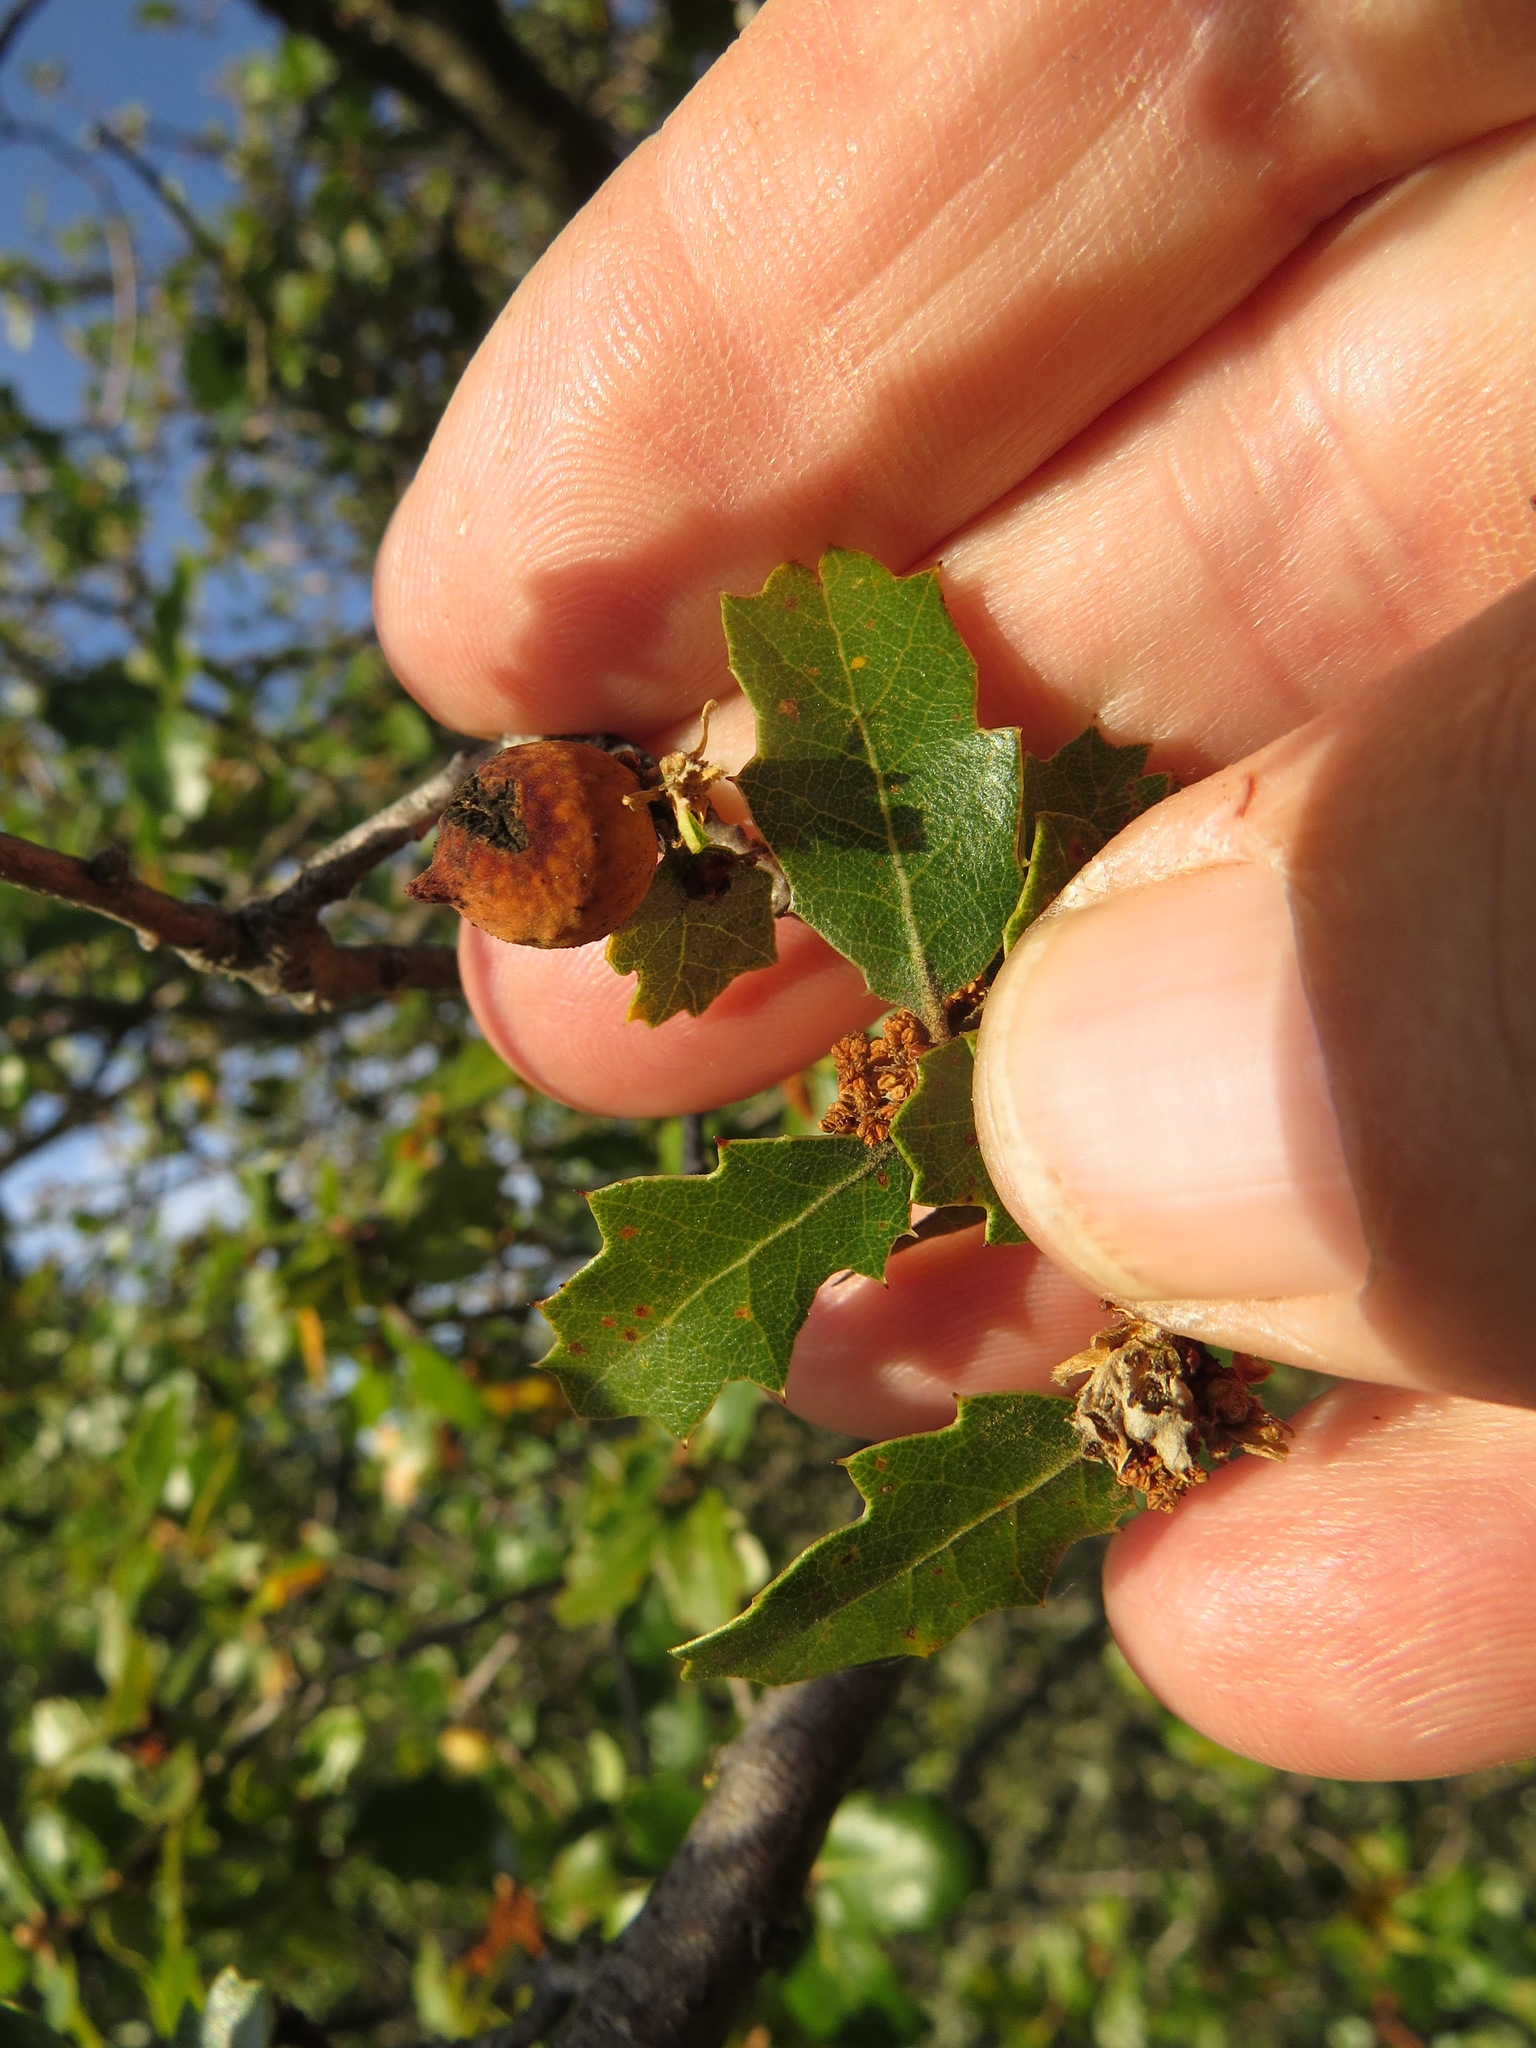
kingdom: Animalia
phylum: Arthropoda
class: Insecta
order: Hymenoptera
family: Cynipidae
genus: Burnettweldia
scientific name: Burnettweldia
